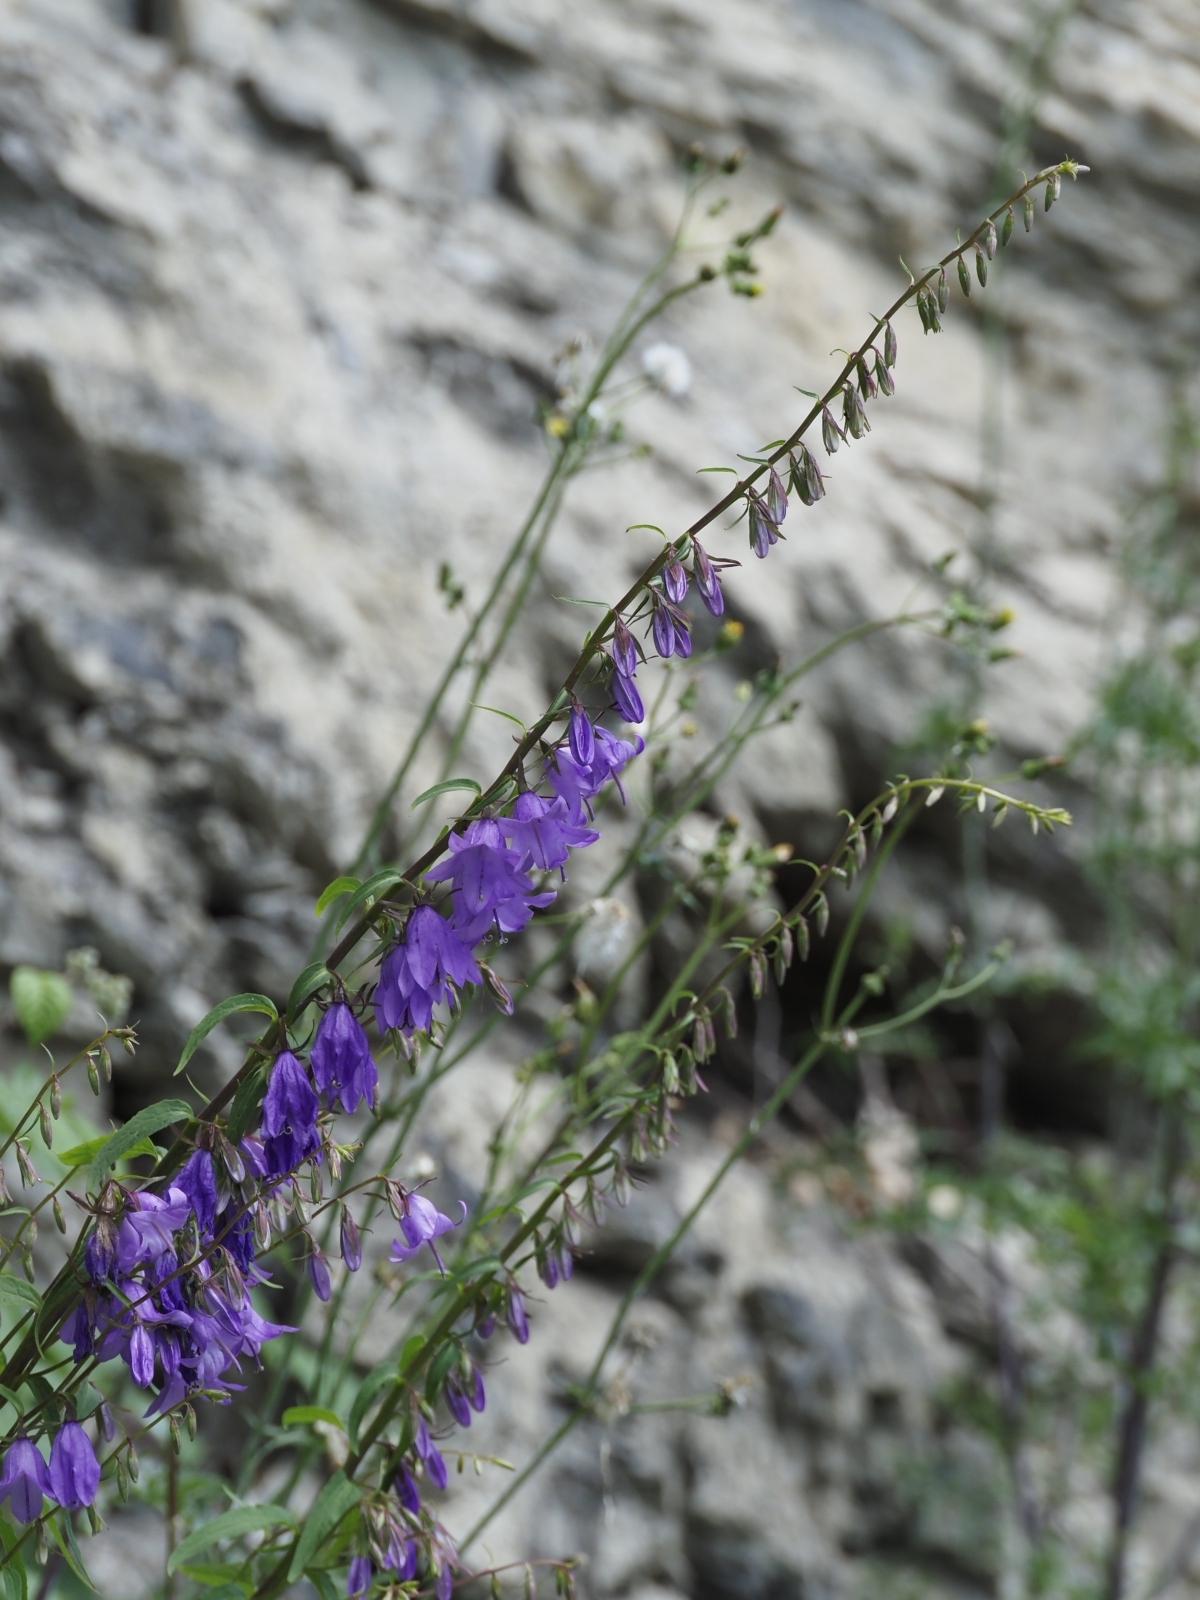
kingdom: Plantae
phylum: Tracheophyta
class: Magnoliopsida
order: Asterales
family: Campanulaceae
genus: Campanula
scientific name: Campanula rapunculoides
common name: Creeping bellflower
